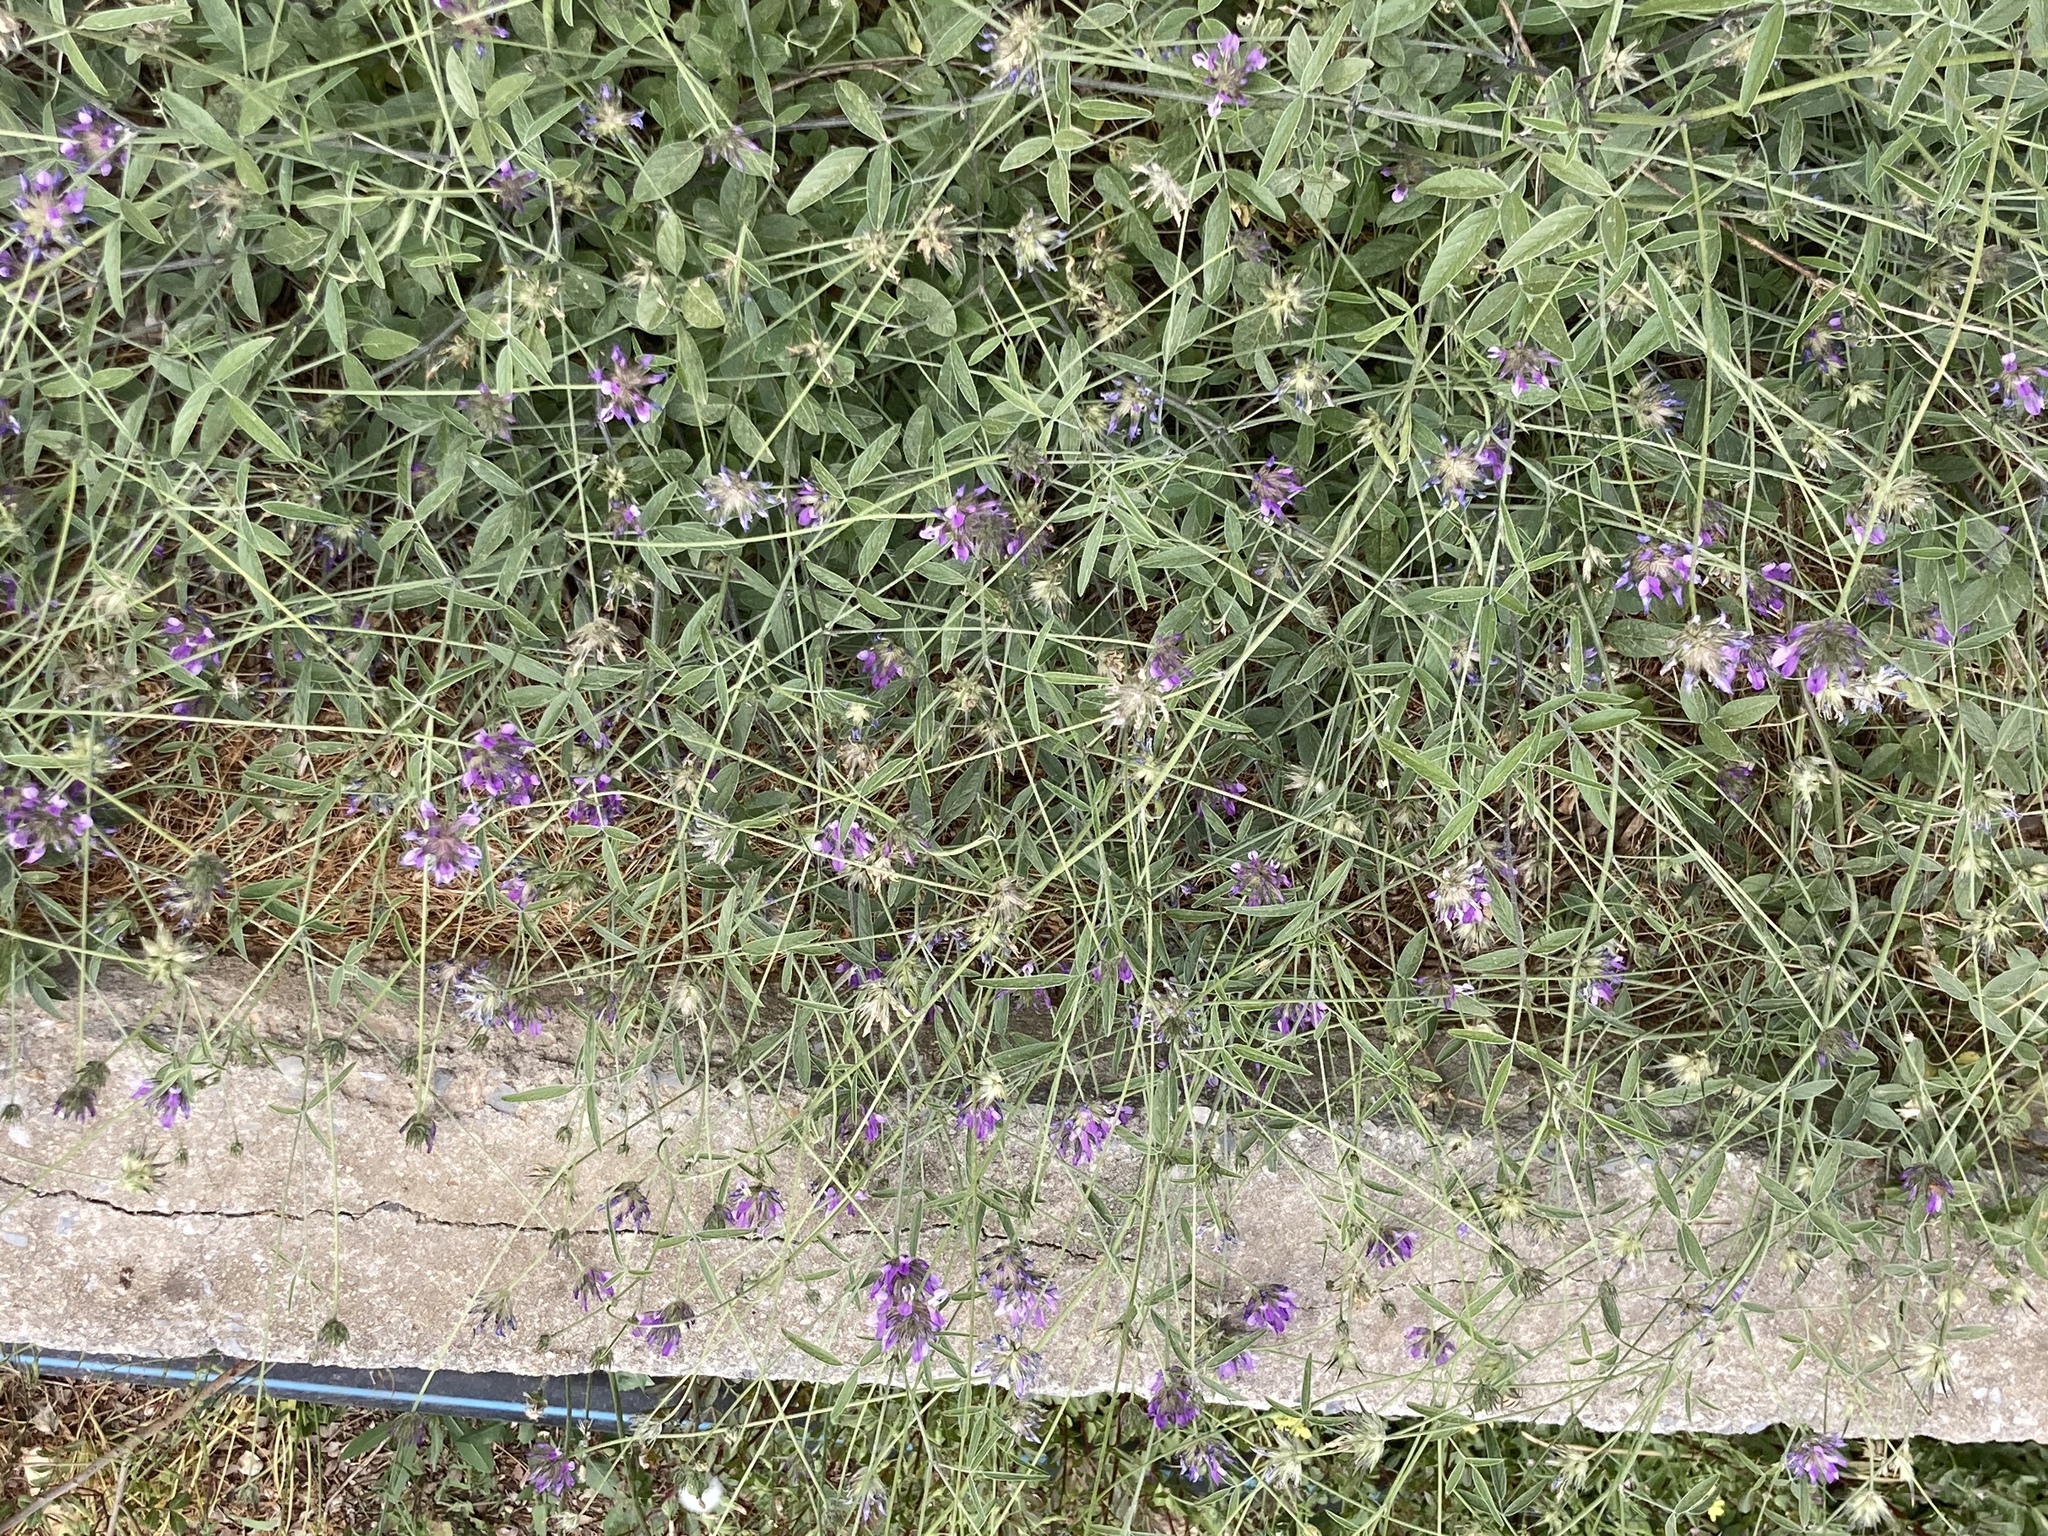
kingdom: Plantae
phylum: Tracheophyta
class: Magnoliopsida
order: Fabales
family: Fabaceae
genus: Bituminaria
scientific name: Bituminaria bituminosa
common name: Arabian pea
